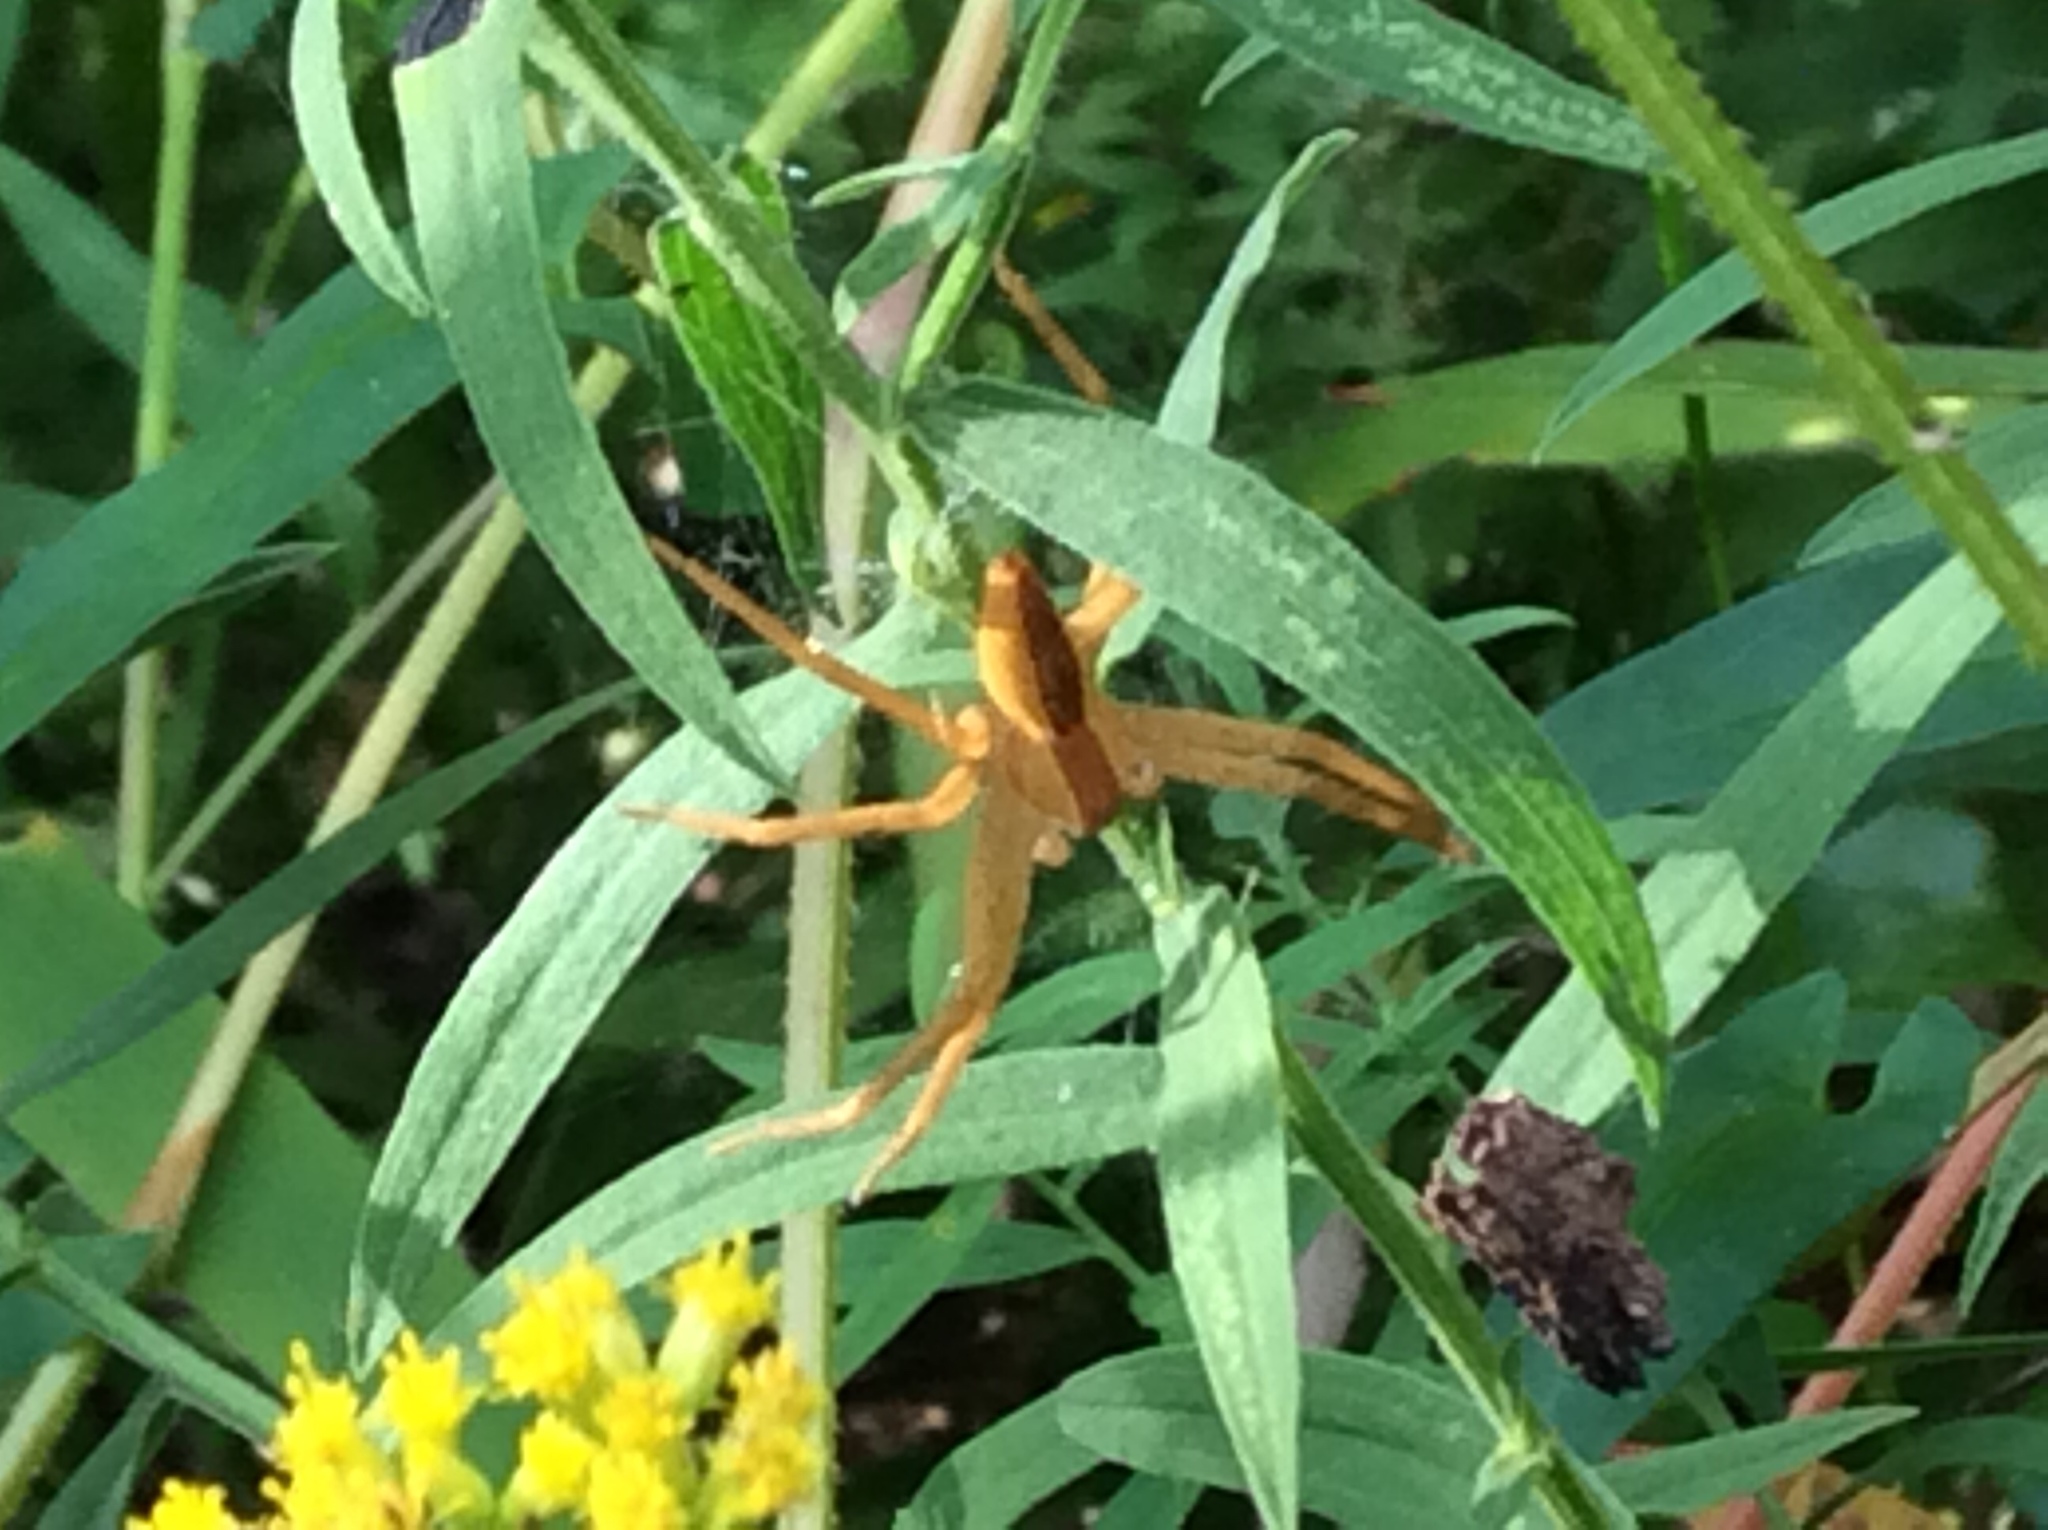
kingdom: Animalia
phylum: Arthropoda
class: Arachnida
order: Araneae
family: Pisauridae
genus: Pisaurina
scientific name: Pisaurina mira
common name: American nursery web spider
